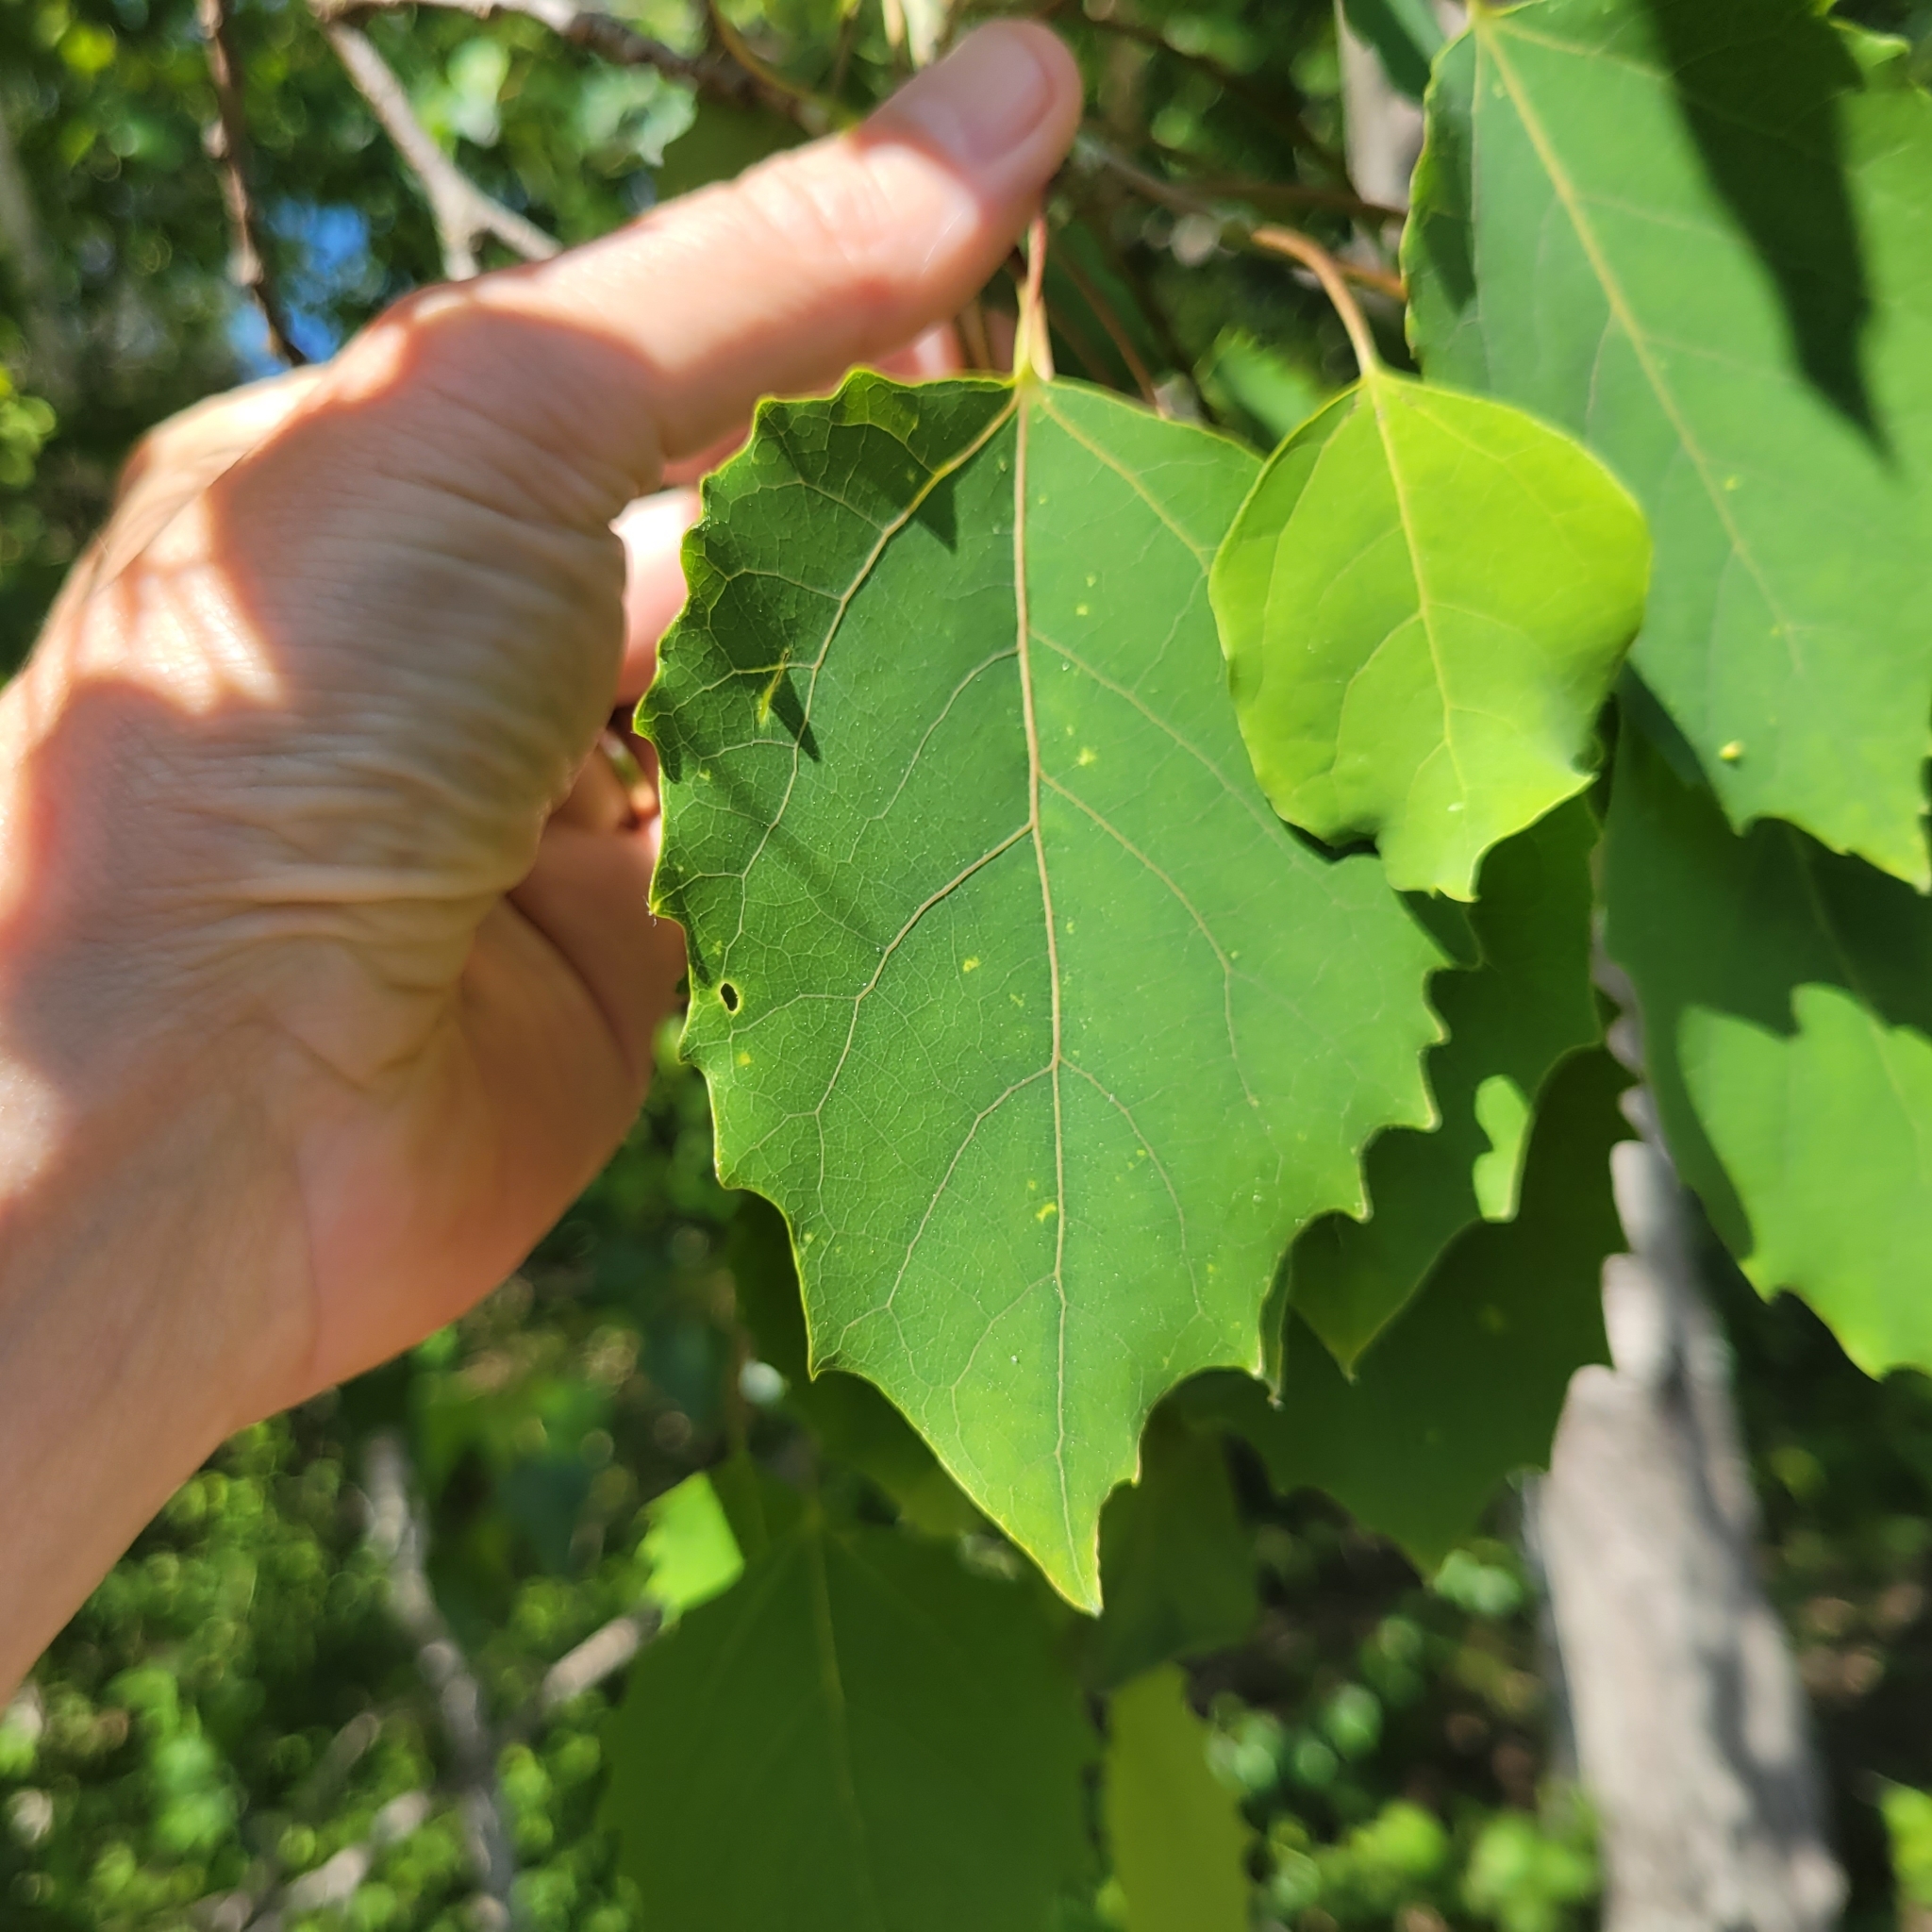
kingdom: Plantae
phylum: Tracheophyta
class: Magnoliopsida
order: Malpighiales
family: Salicaceae
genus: Populus
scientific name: Populus grandidentata
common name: Bigtooth aspen
